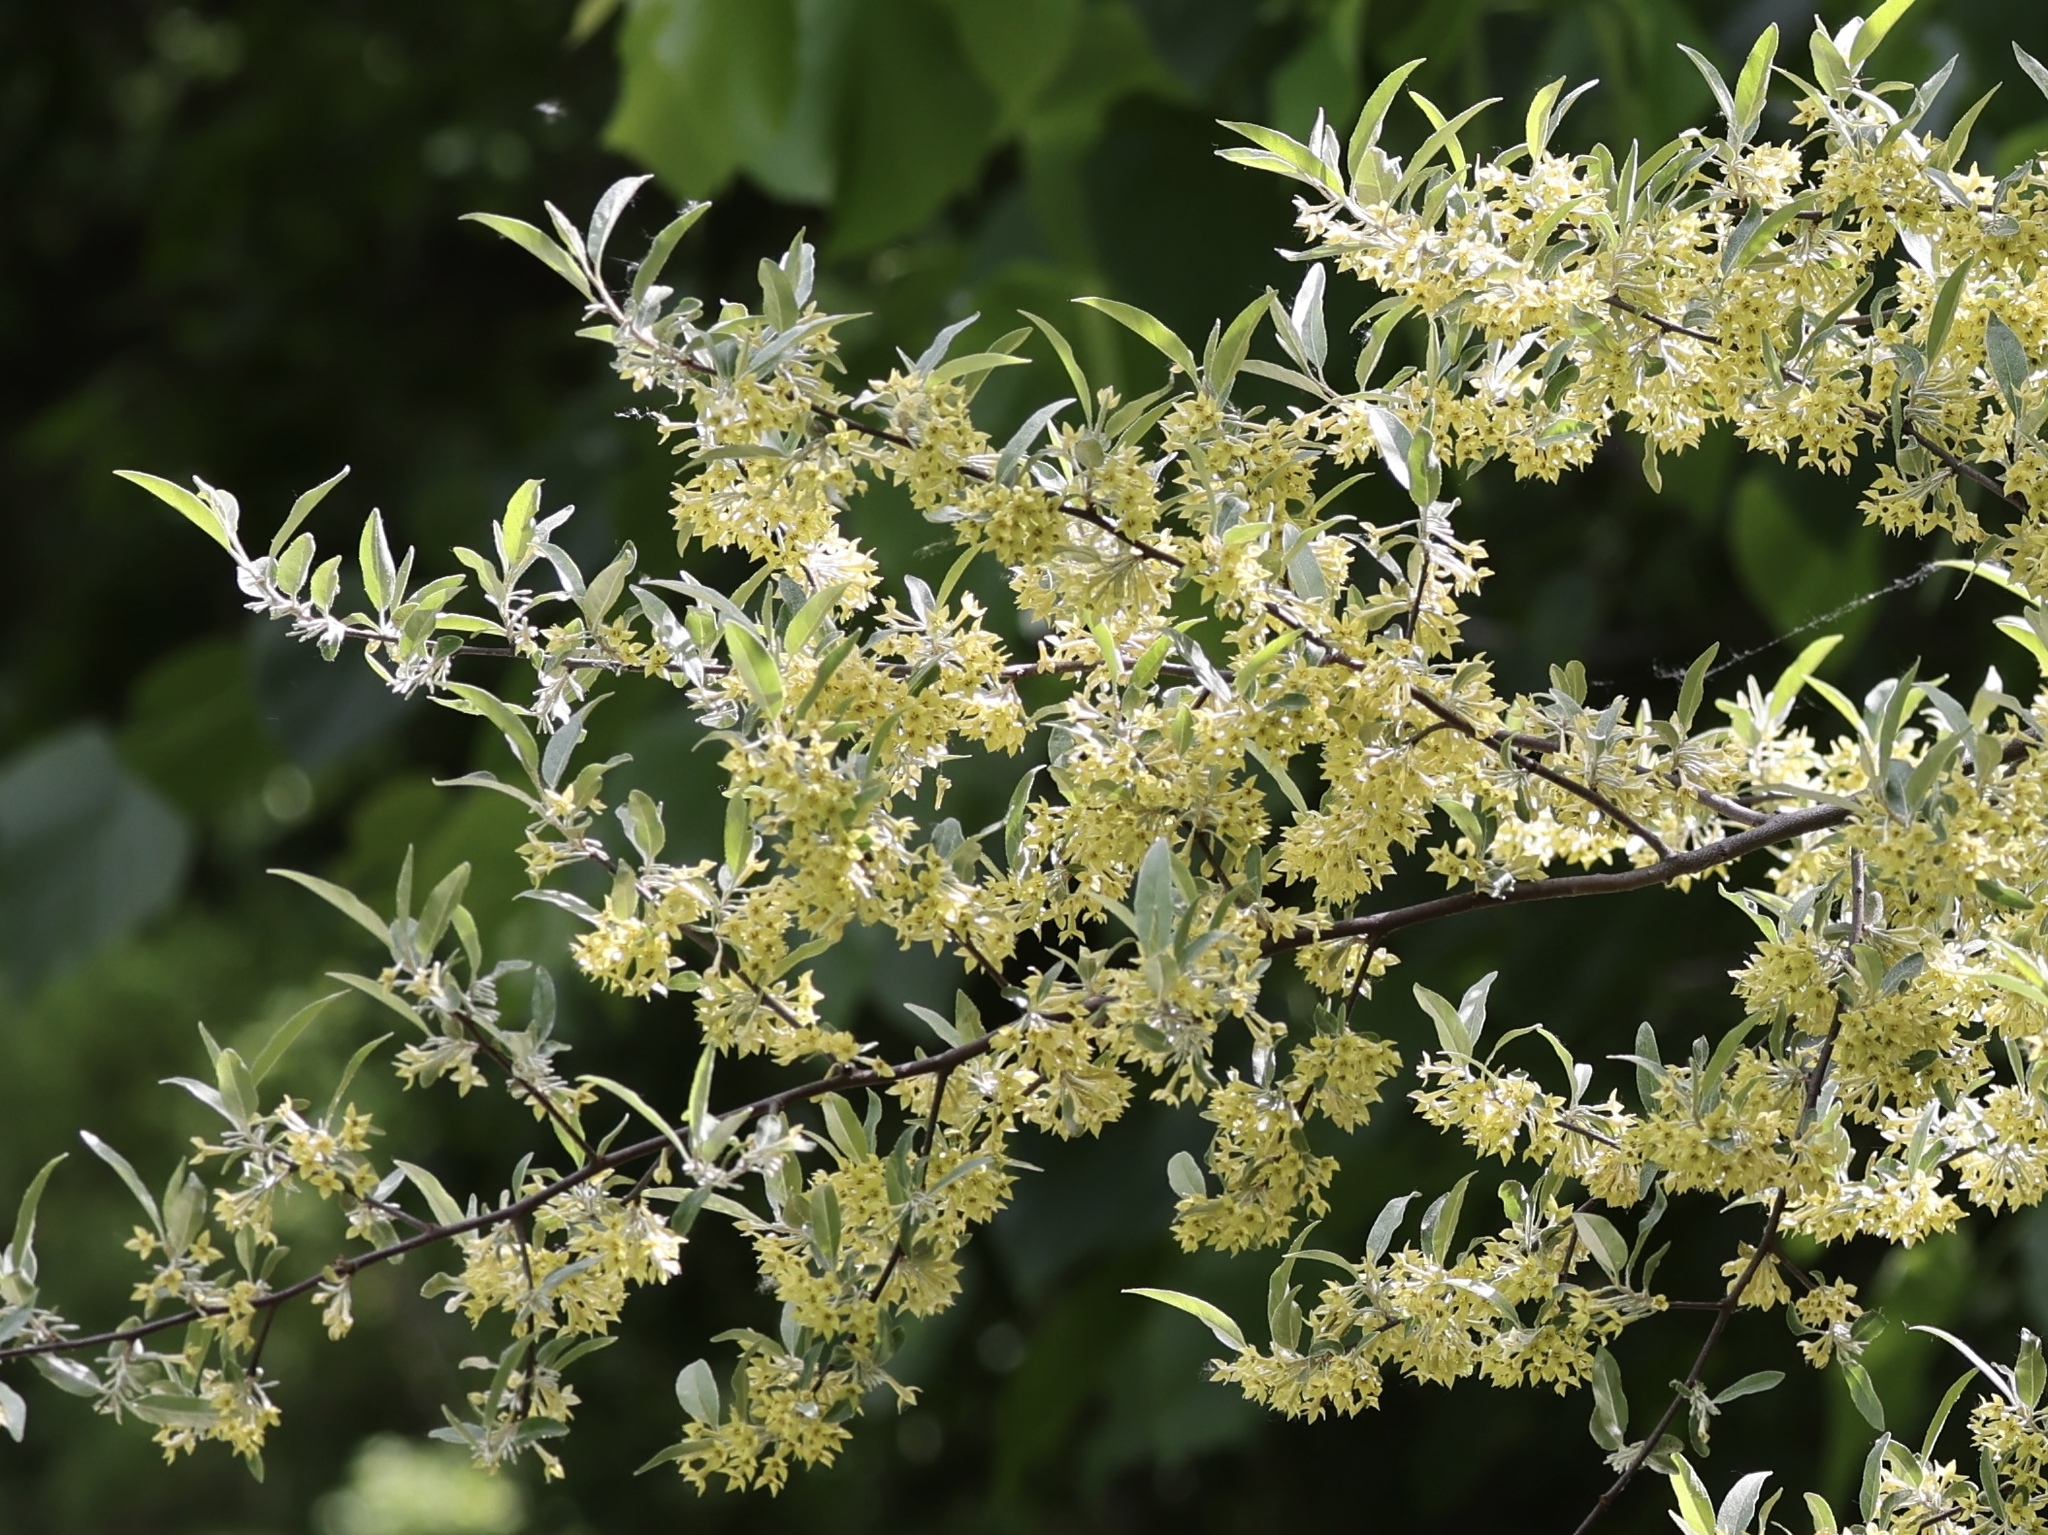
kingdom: Plantae
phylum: Tracheophyta
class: Magnoliopsida
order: Rosales
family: Elaeagnaceae
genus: Elaeagnus
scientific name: Elaeagnus umbellata
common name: Autumn olive
